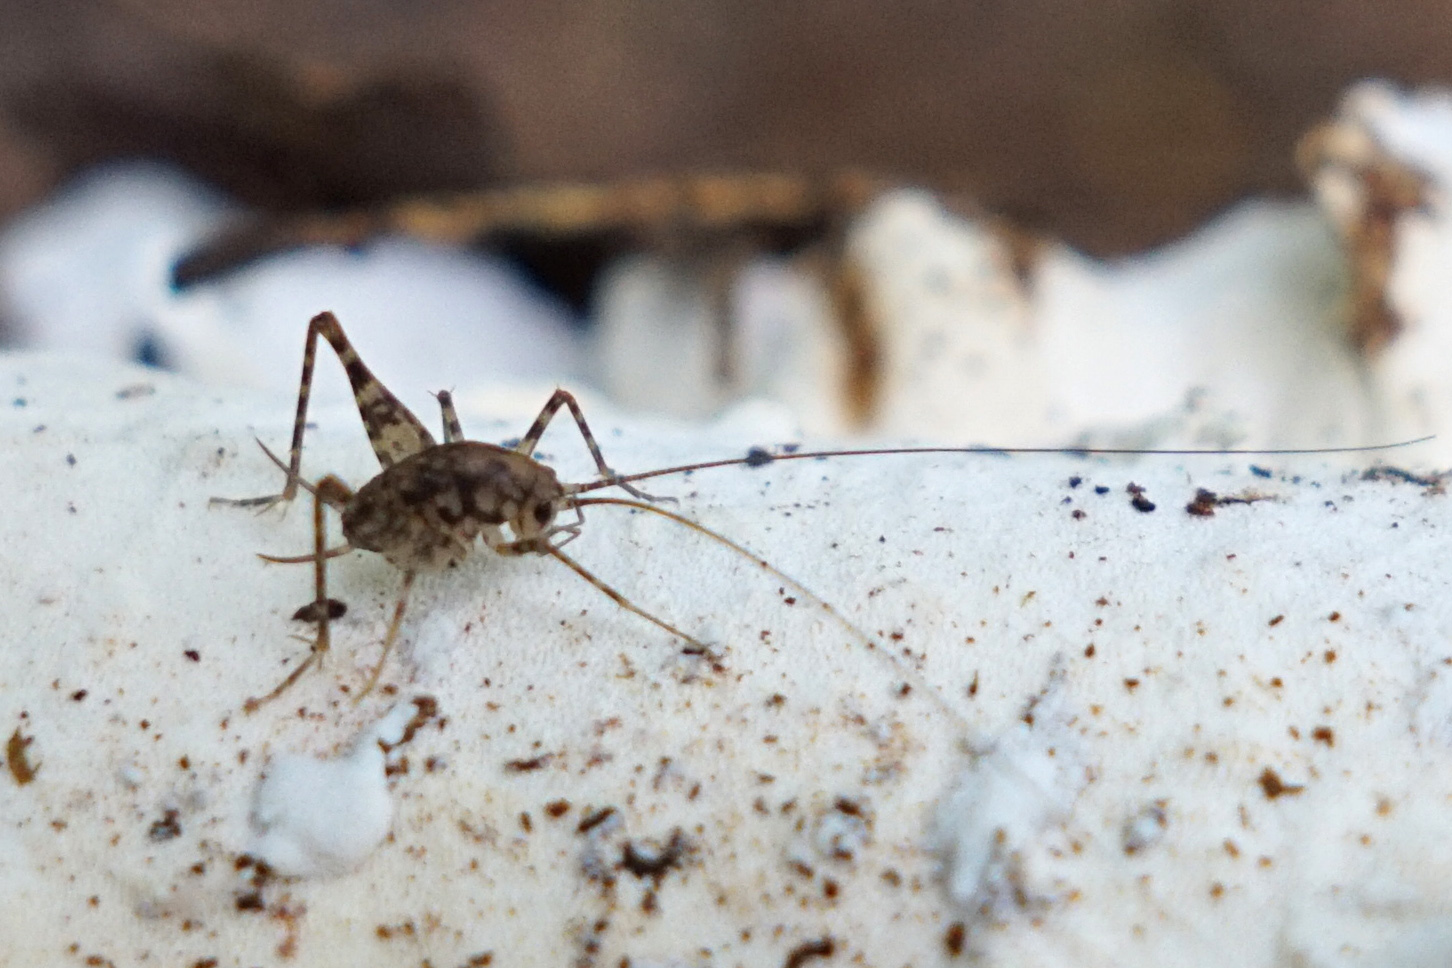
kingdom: Animalia
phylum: Arthropoda
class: Insecta
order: Orthoptera
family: Rhaphidophoridae
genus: Tachycines
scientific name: Tachycines asynamorus
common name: Greenhouse camel cricket
